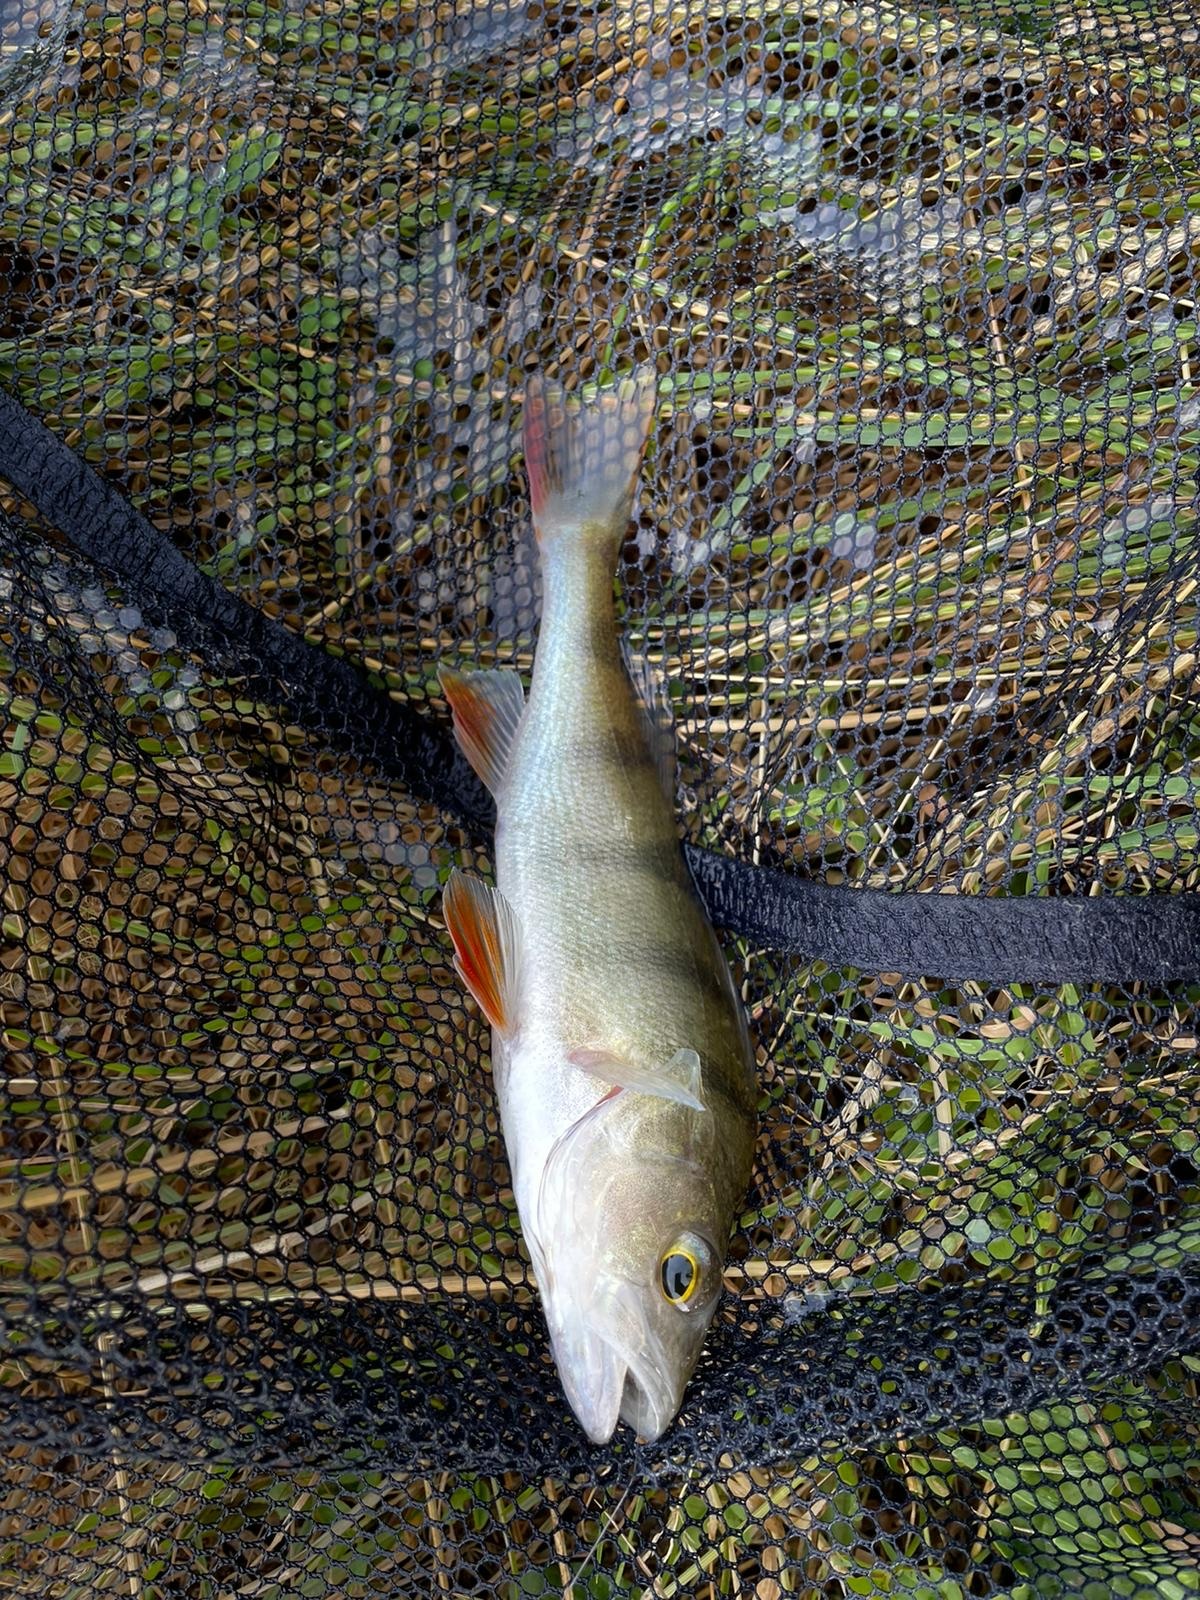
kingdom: Animalia
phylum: Chordata
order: Perciformes
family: Percidae
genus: Perca
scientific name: Perca fluviatilis
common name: Perch
